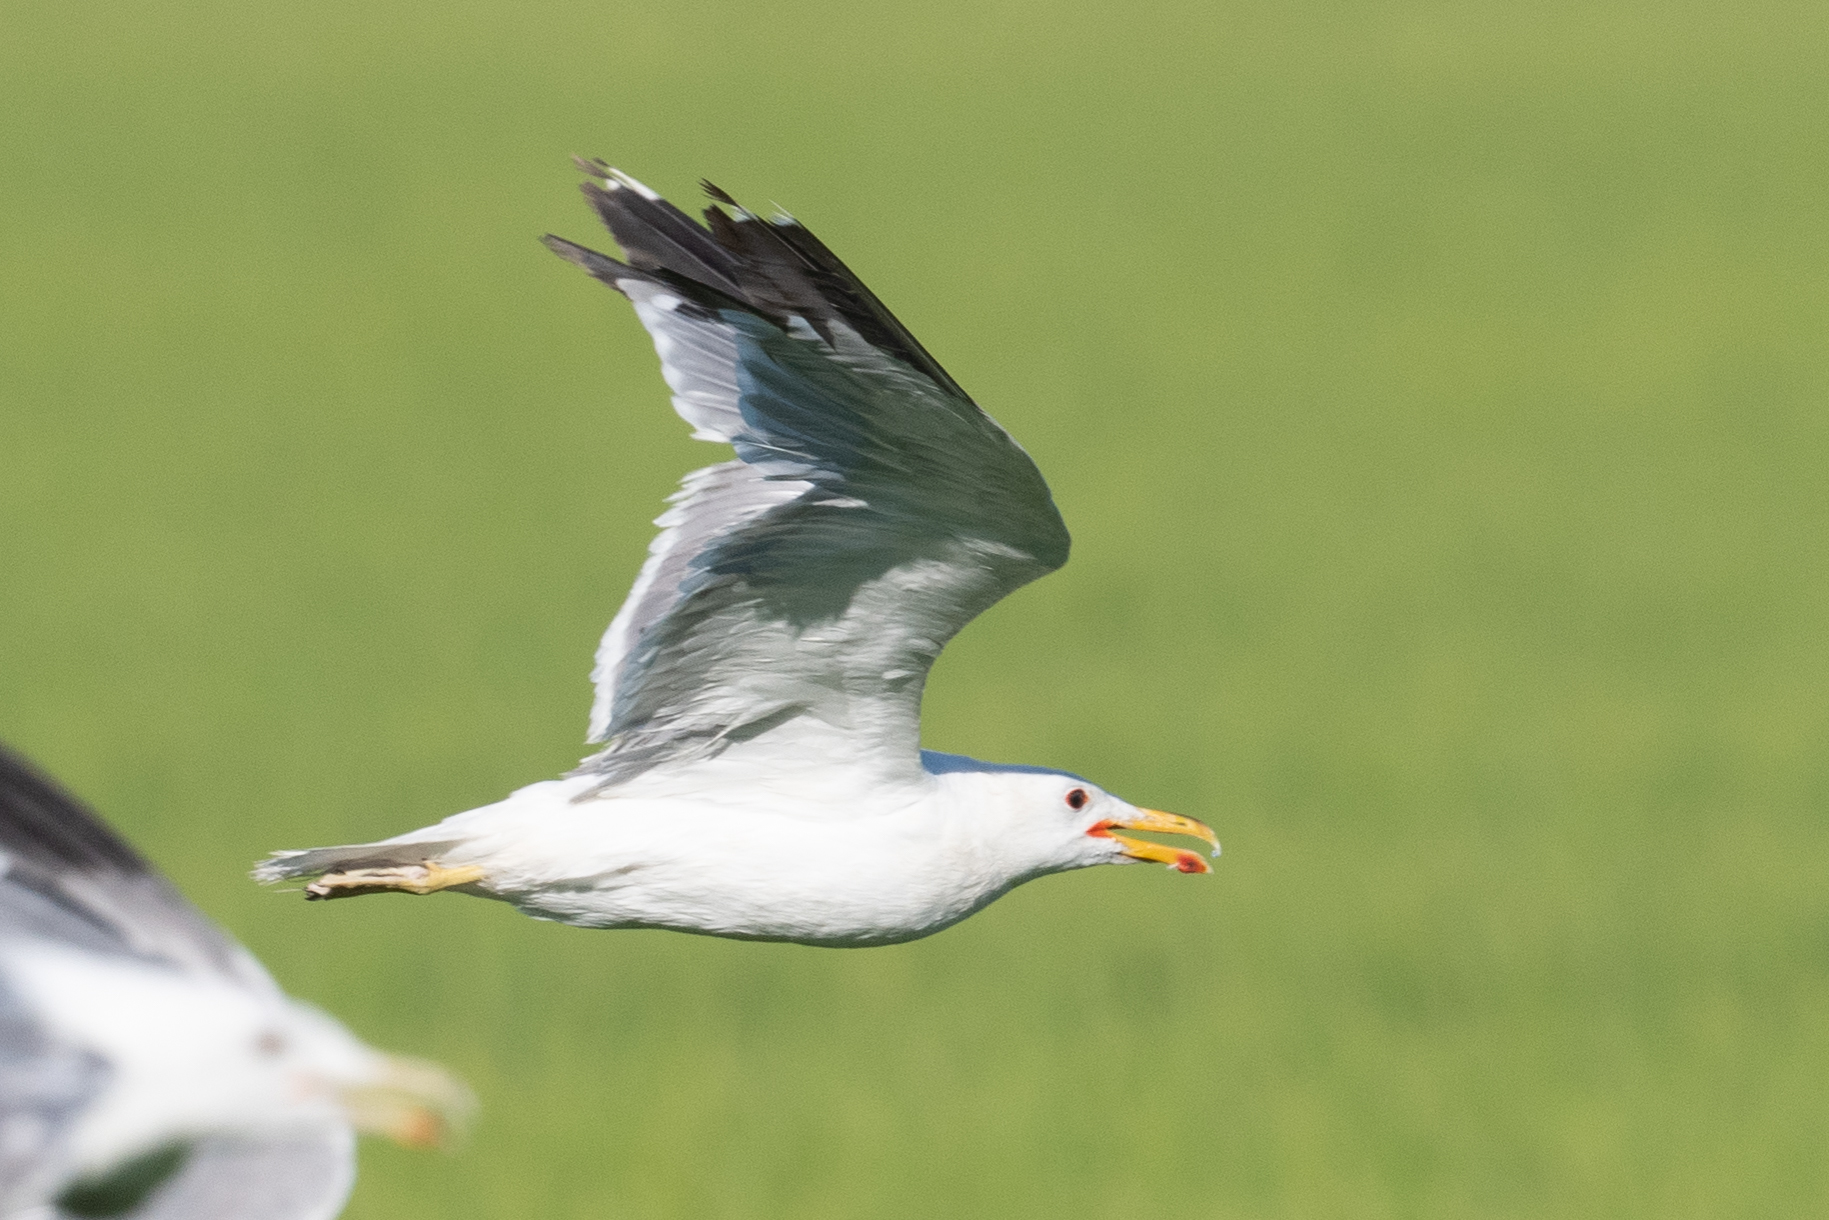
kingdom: Animalia
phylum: Chordata
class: Aves
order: Charadriiformes
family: Laridae
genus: Larus
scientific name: Larus californicus
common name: California gull
